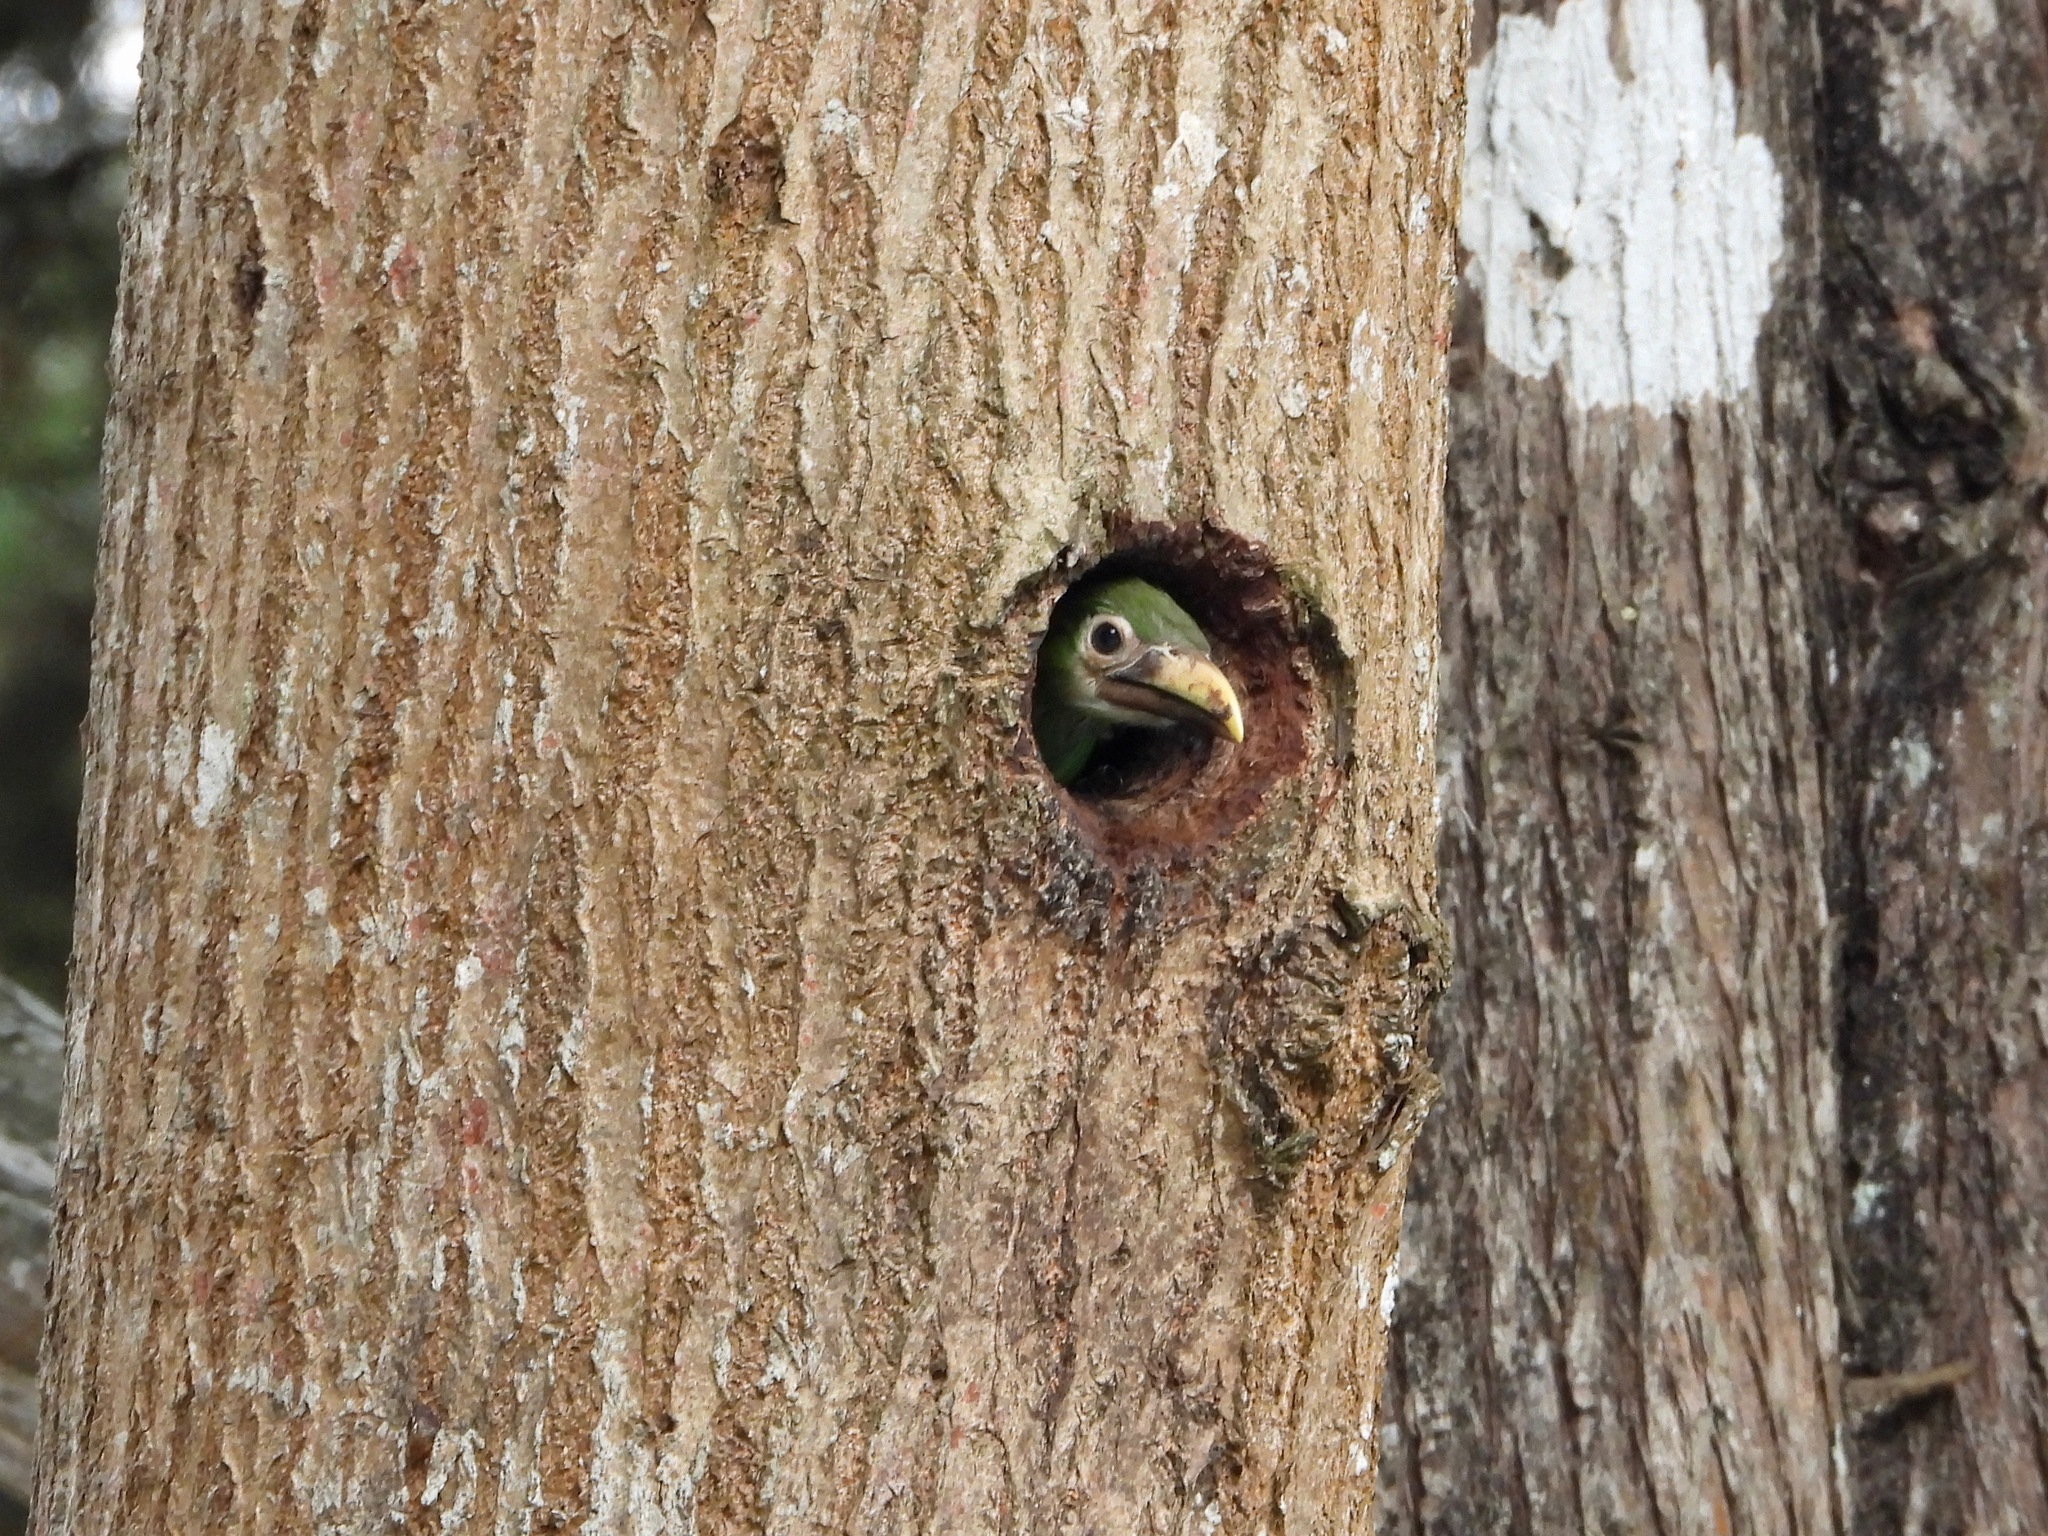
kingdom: Animalia
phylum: Chordata
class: Aves
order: Piciformes
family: Ramphastidae
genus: Aulacorhynchus
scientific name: Aulacorhynchus prasinus
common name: Emerald toucanet
